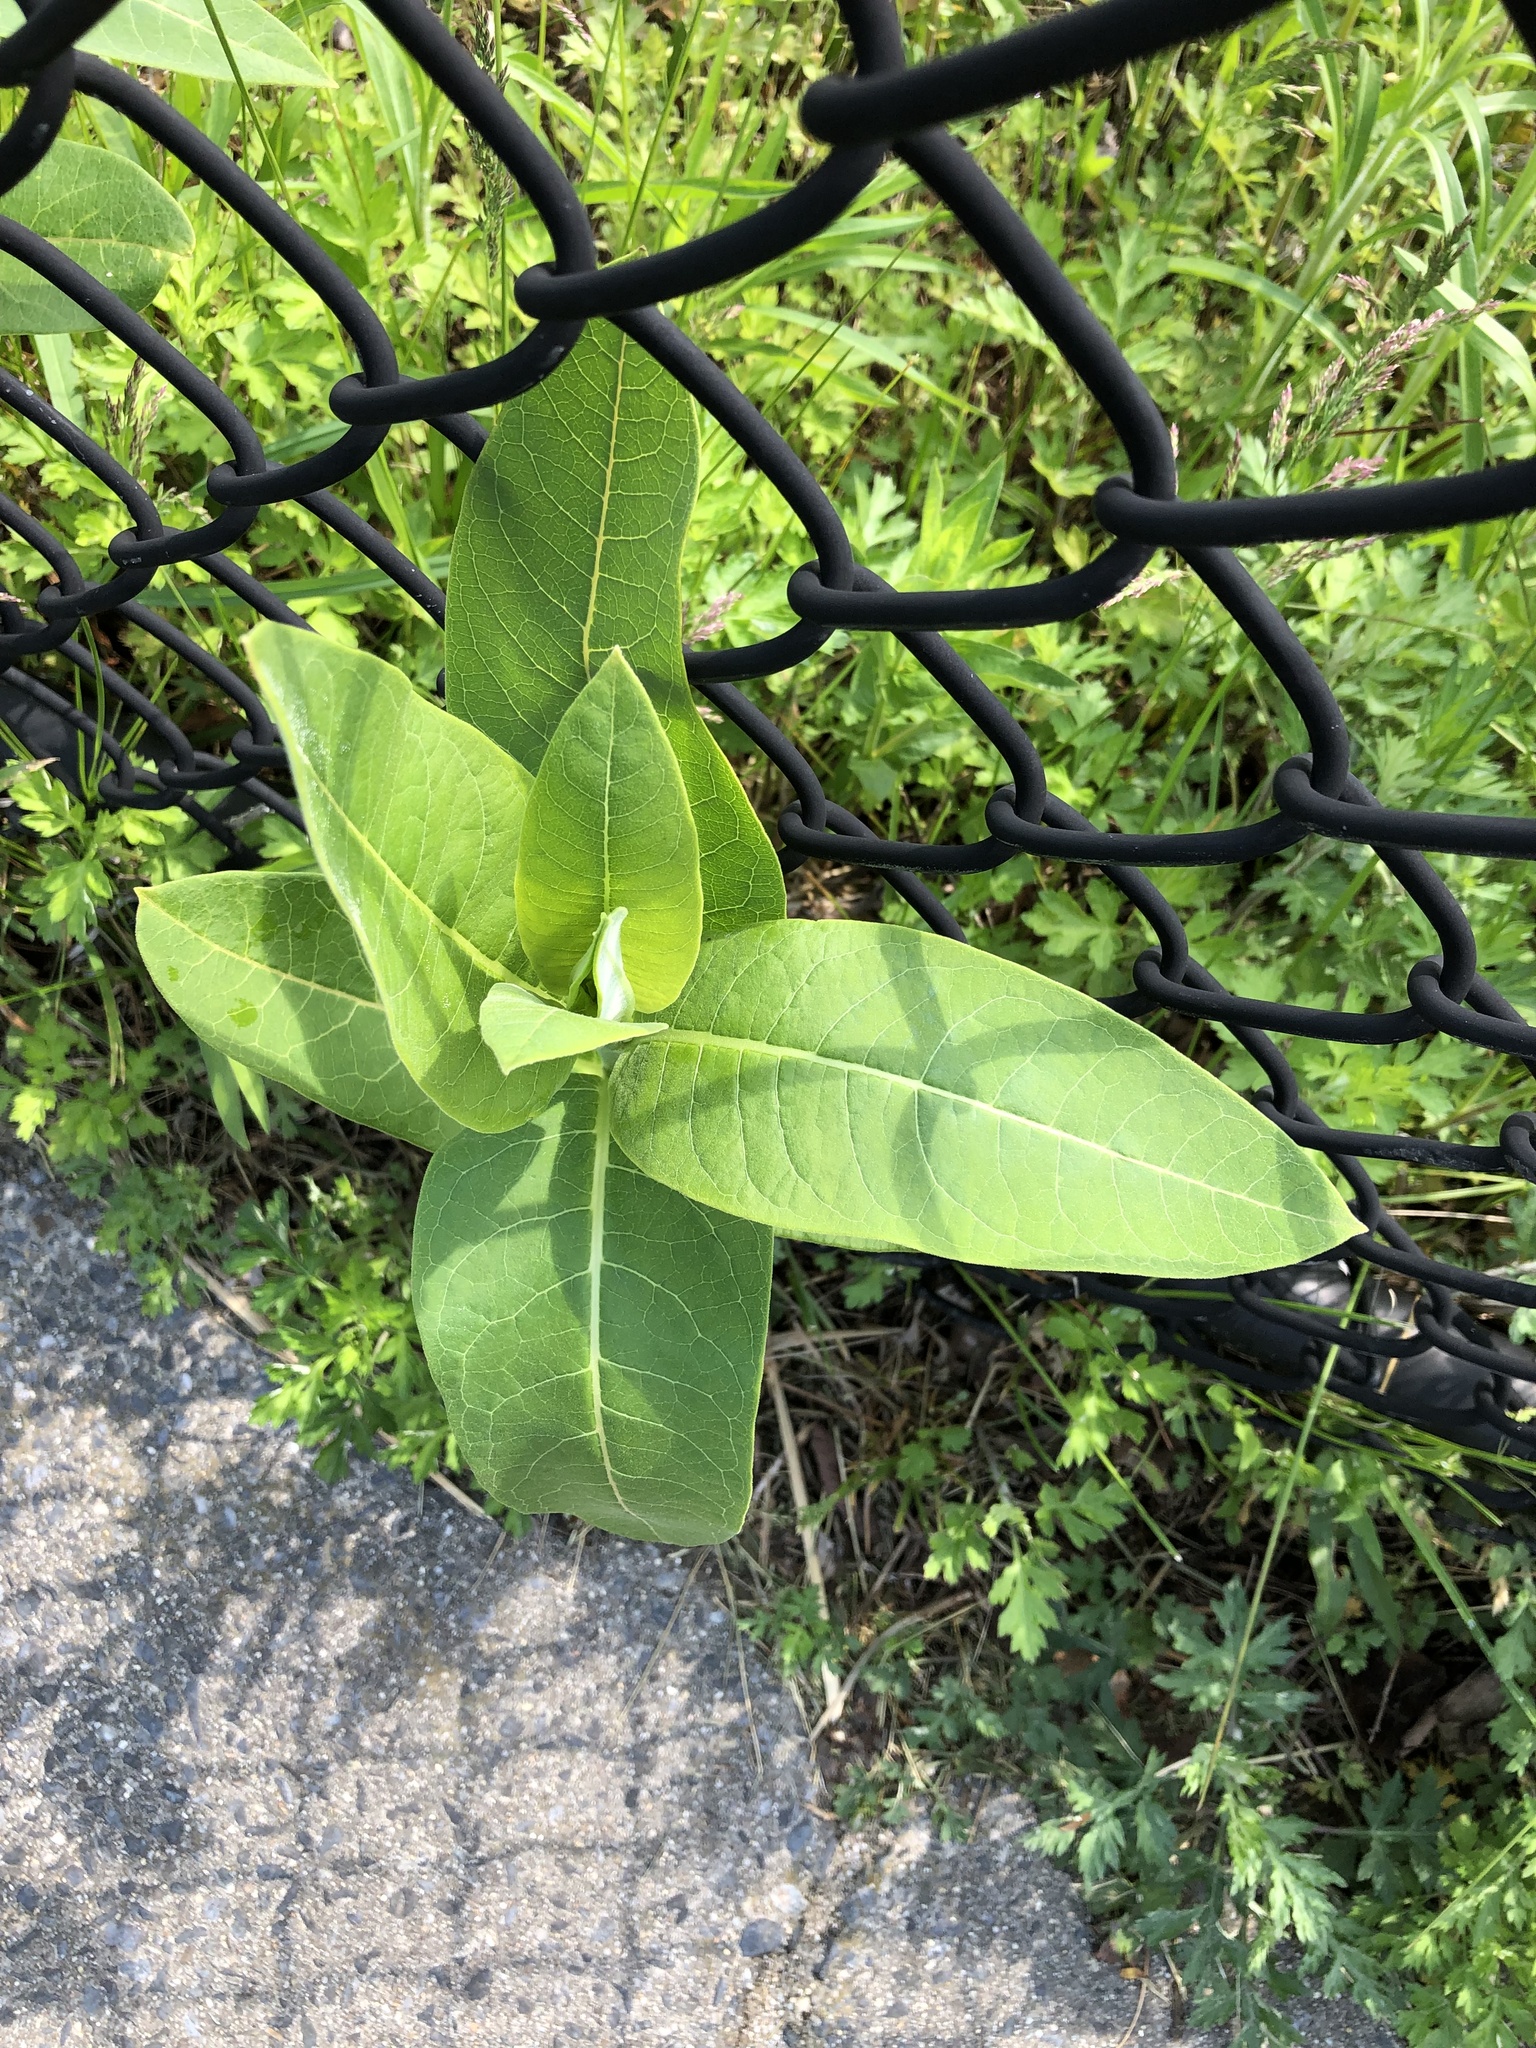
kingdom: Plantae
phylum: Tracheophyta
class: Magnoliopsida
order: Gentianales
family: Apocynaceae
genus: Asclepias
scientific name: Asclepias syriaca
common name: Common milkweed
